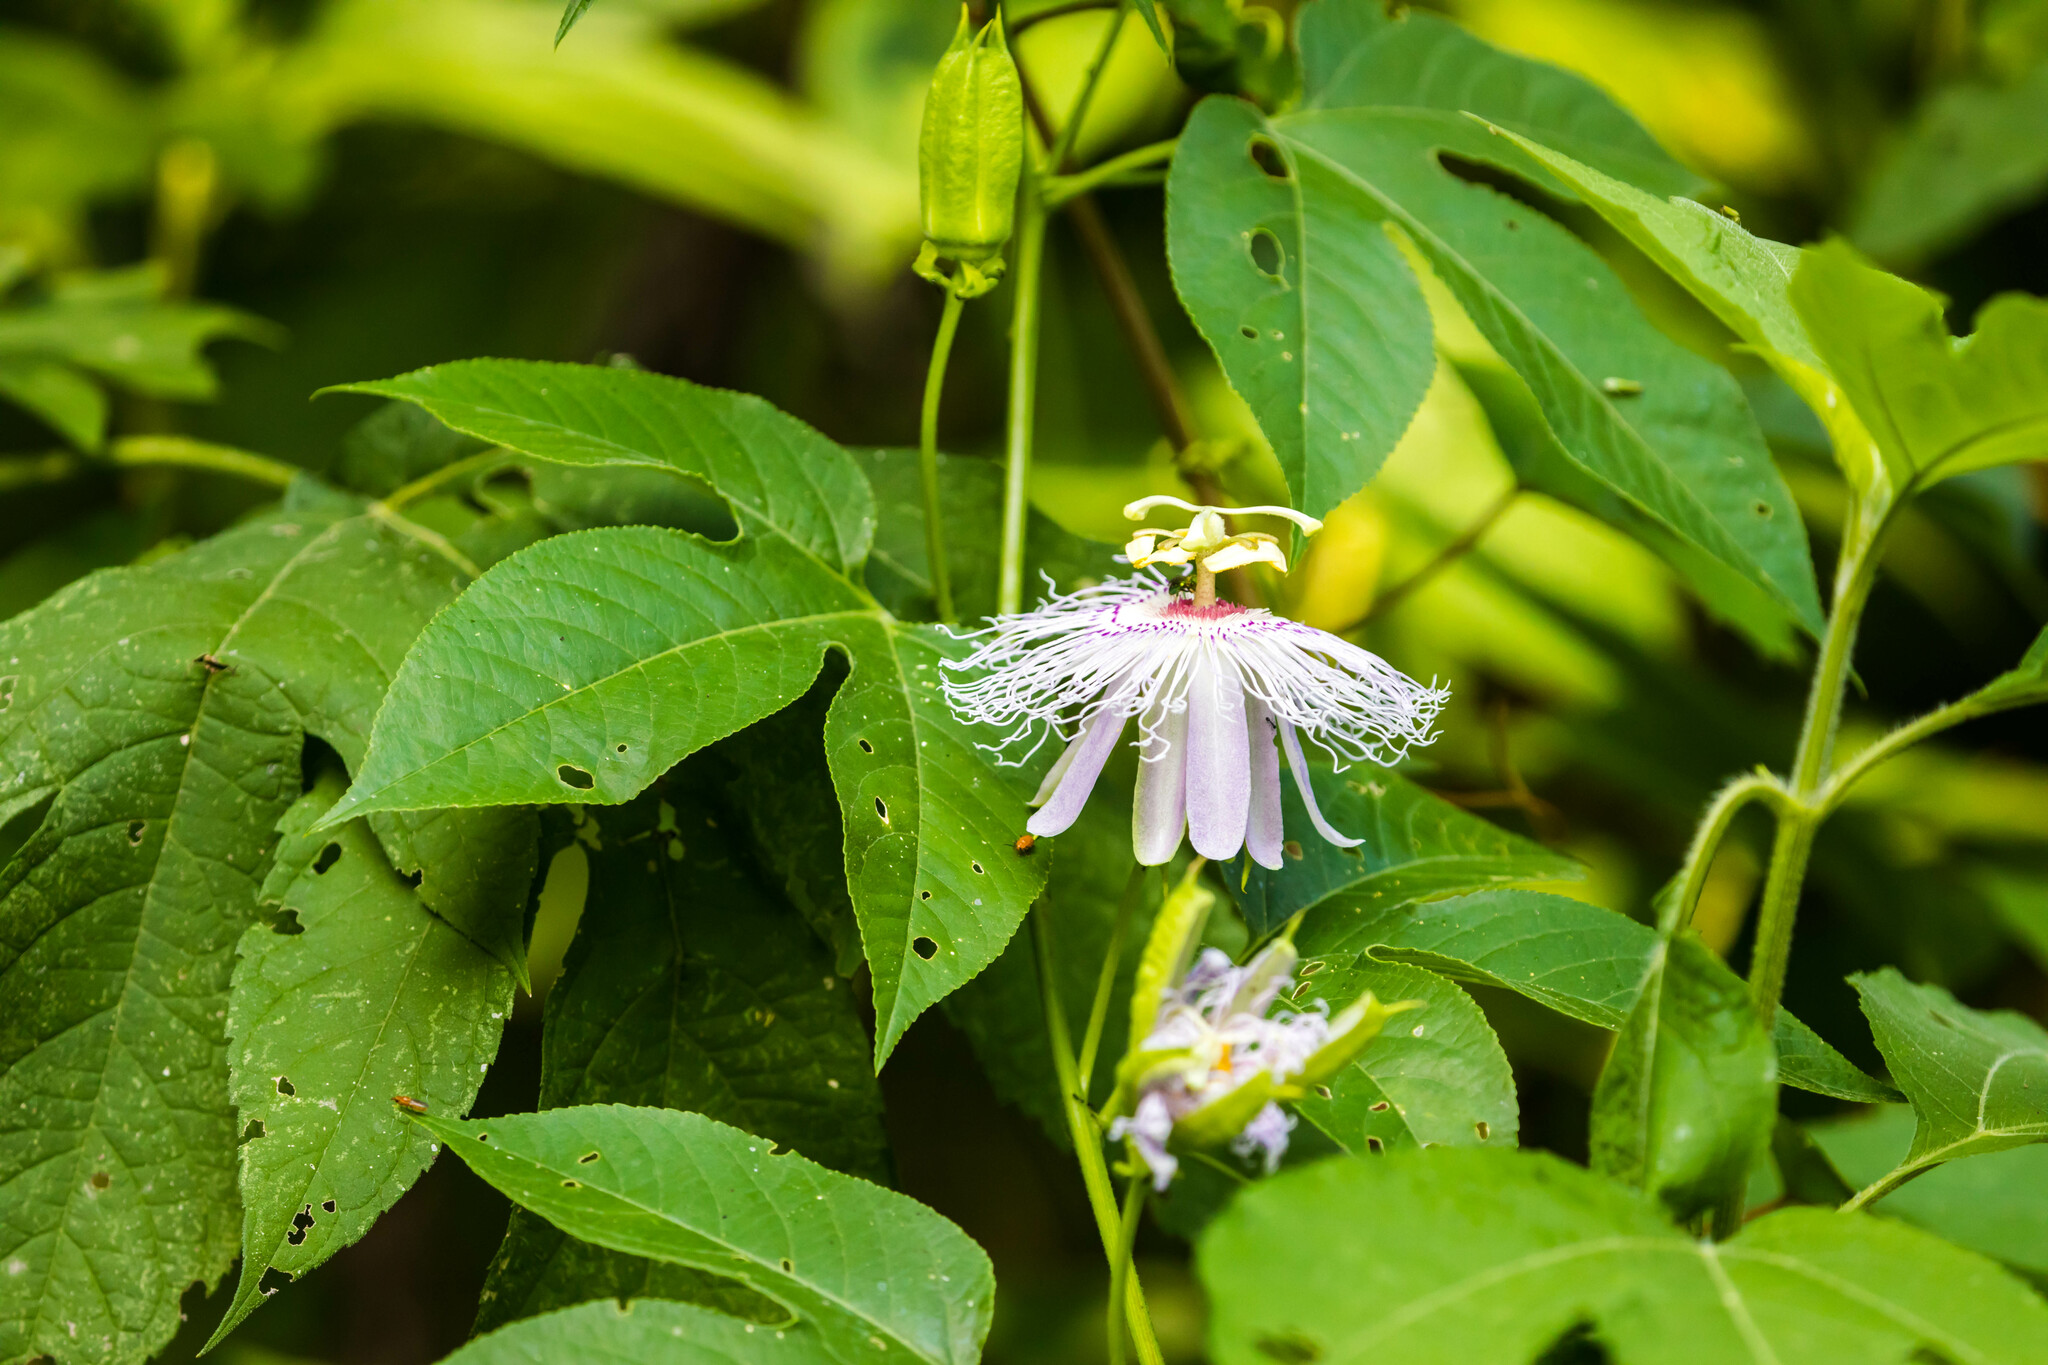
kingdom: Plantae
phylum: Tracheophyta
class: Magnoliopsida
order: Malpighiales
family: Passifloraceae
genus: Passiflora
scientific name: Passiflora incarnata
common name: Apricot-vine
